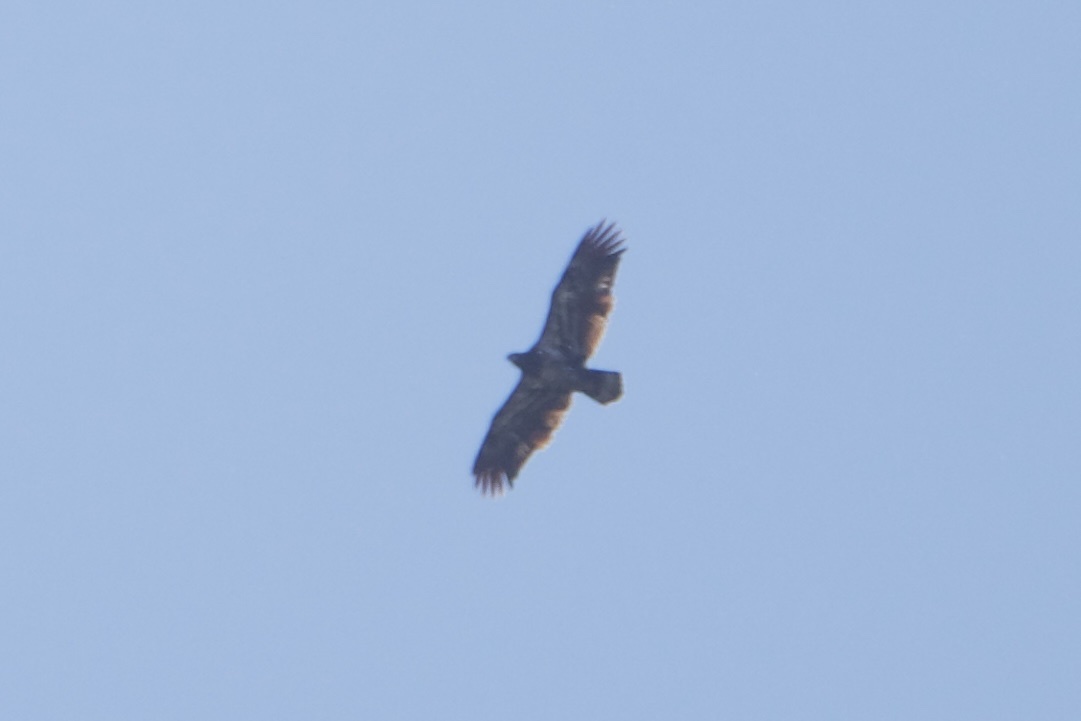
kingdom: Animalia
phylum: Chordata
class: Aves
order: Accipitriformes
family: Accipitridae
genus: Haliaeetus
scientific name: Haliaeetus leucocephalus
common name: Bald eagle
